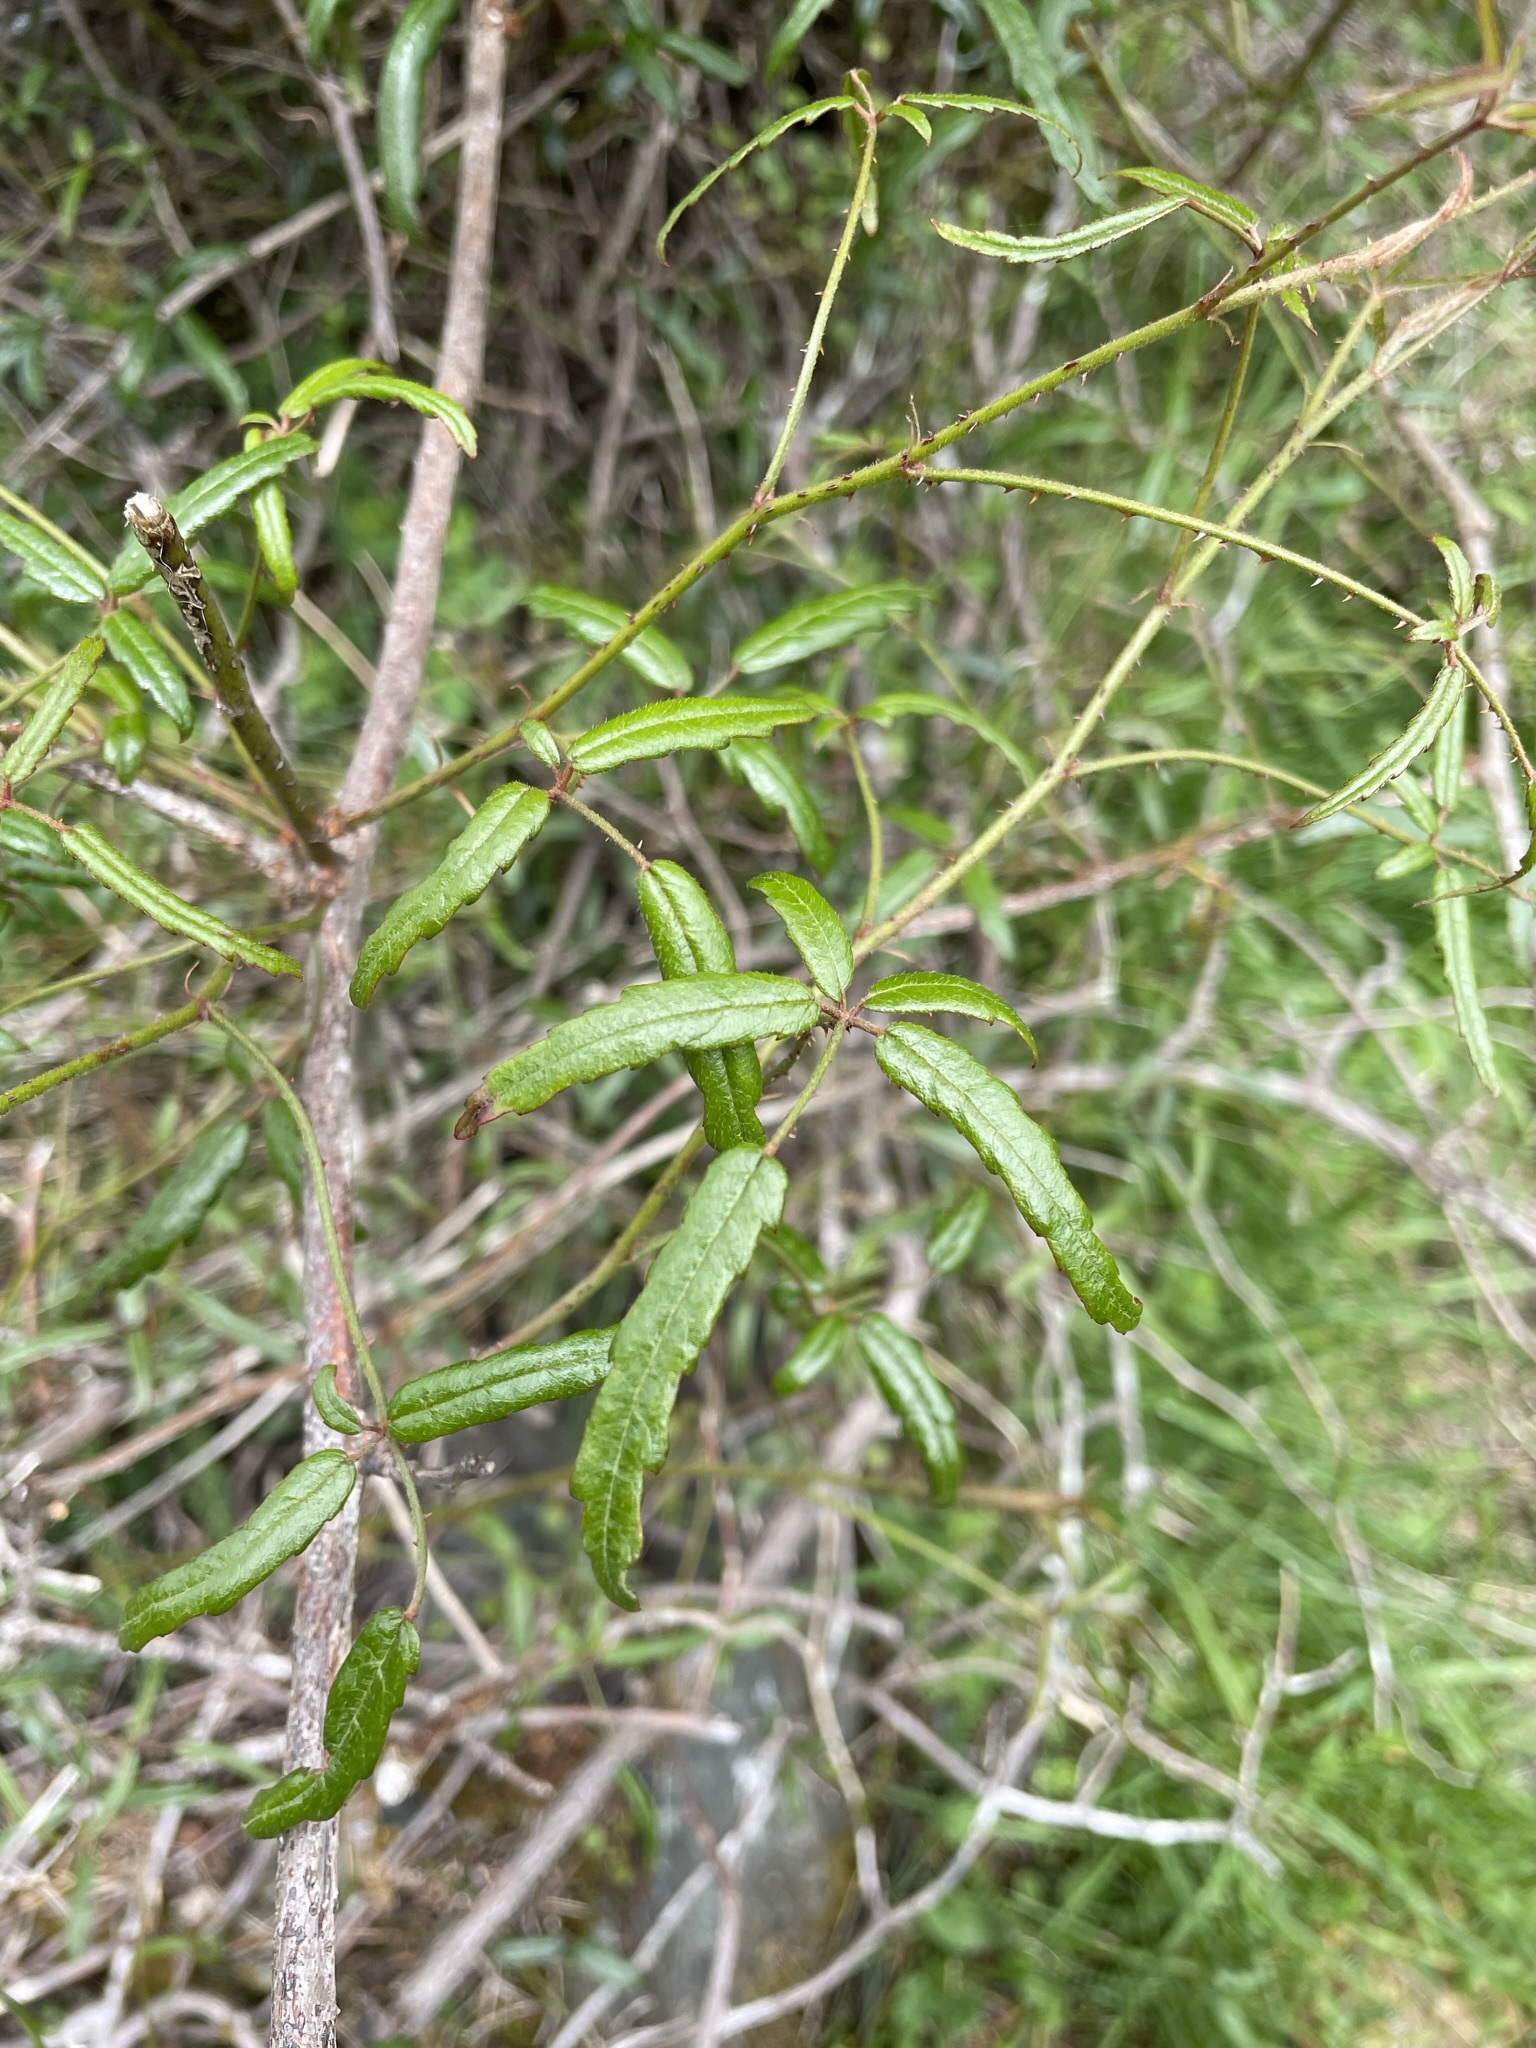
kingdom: Plantae
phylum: Tracheophyta
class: Magnoliopsida
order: Rosales
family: Rosaceae
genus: Rubus
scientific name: Rubus schmidelioides
